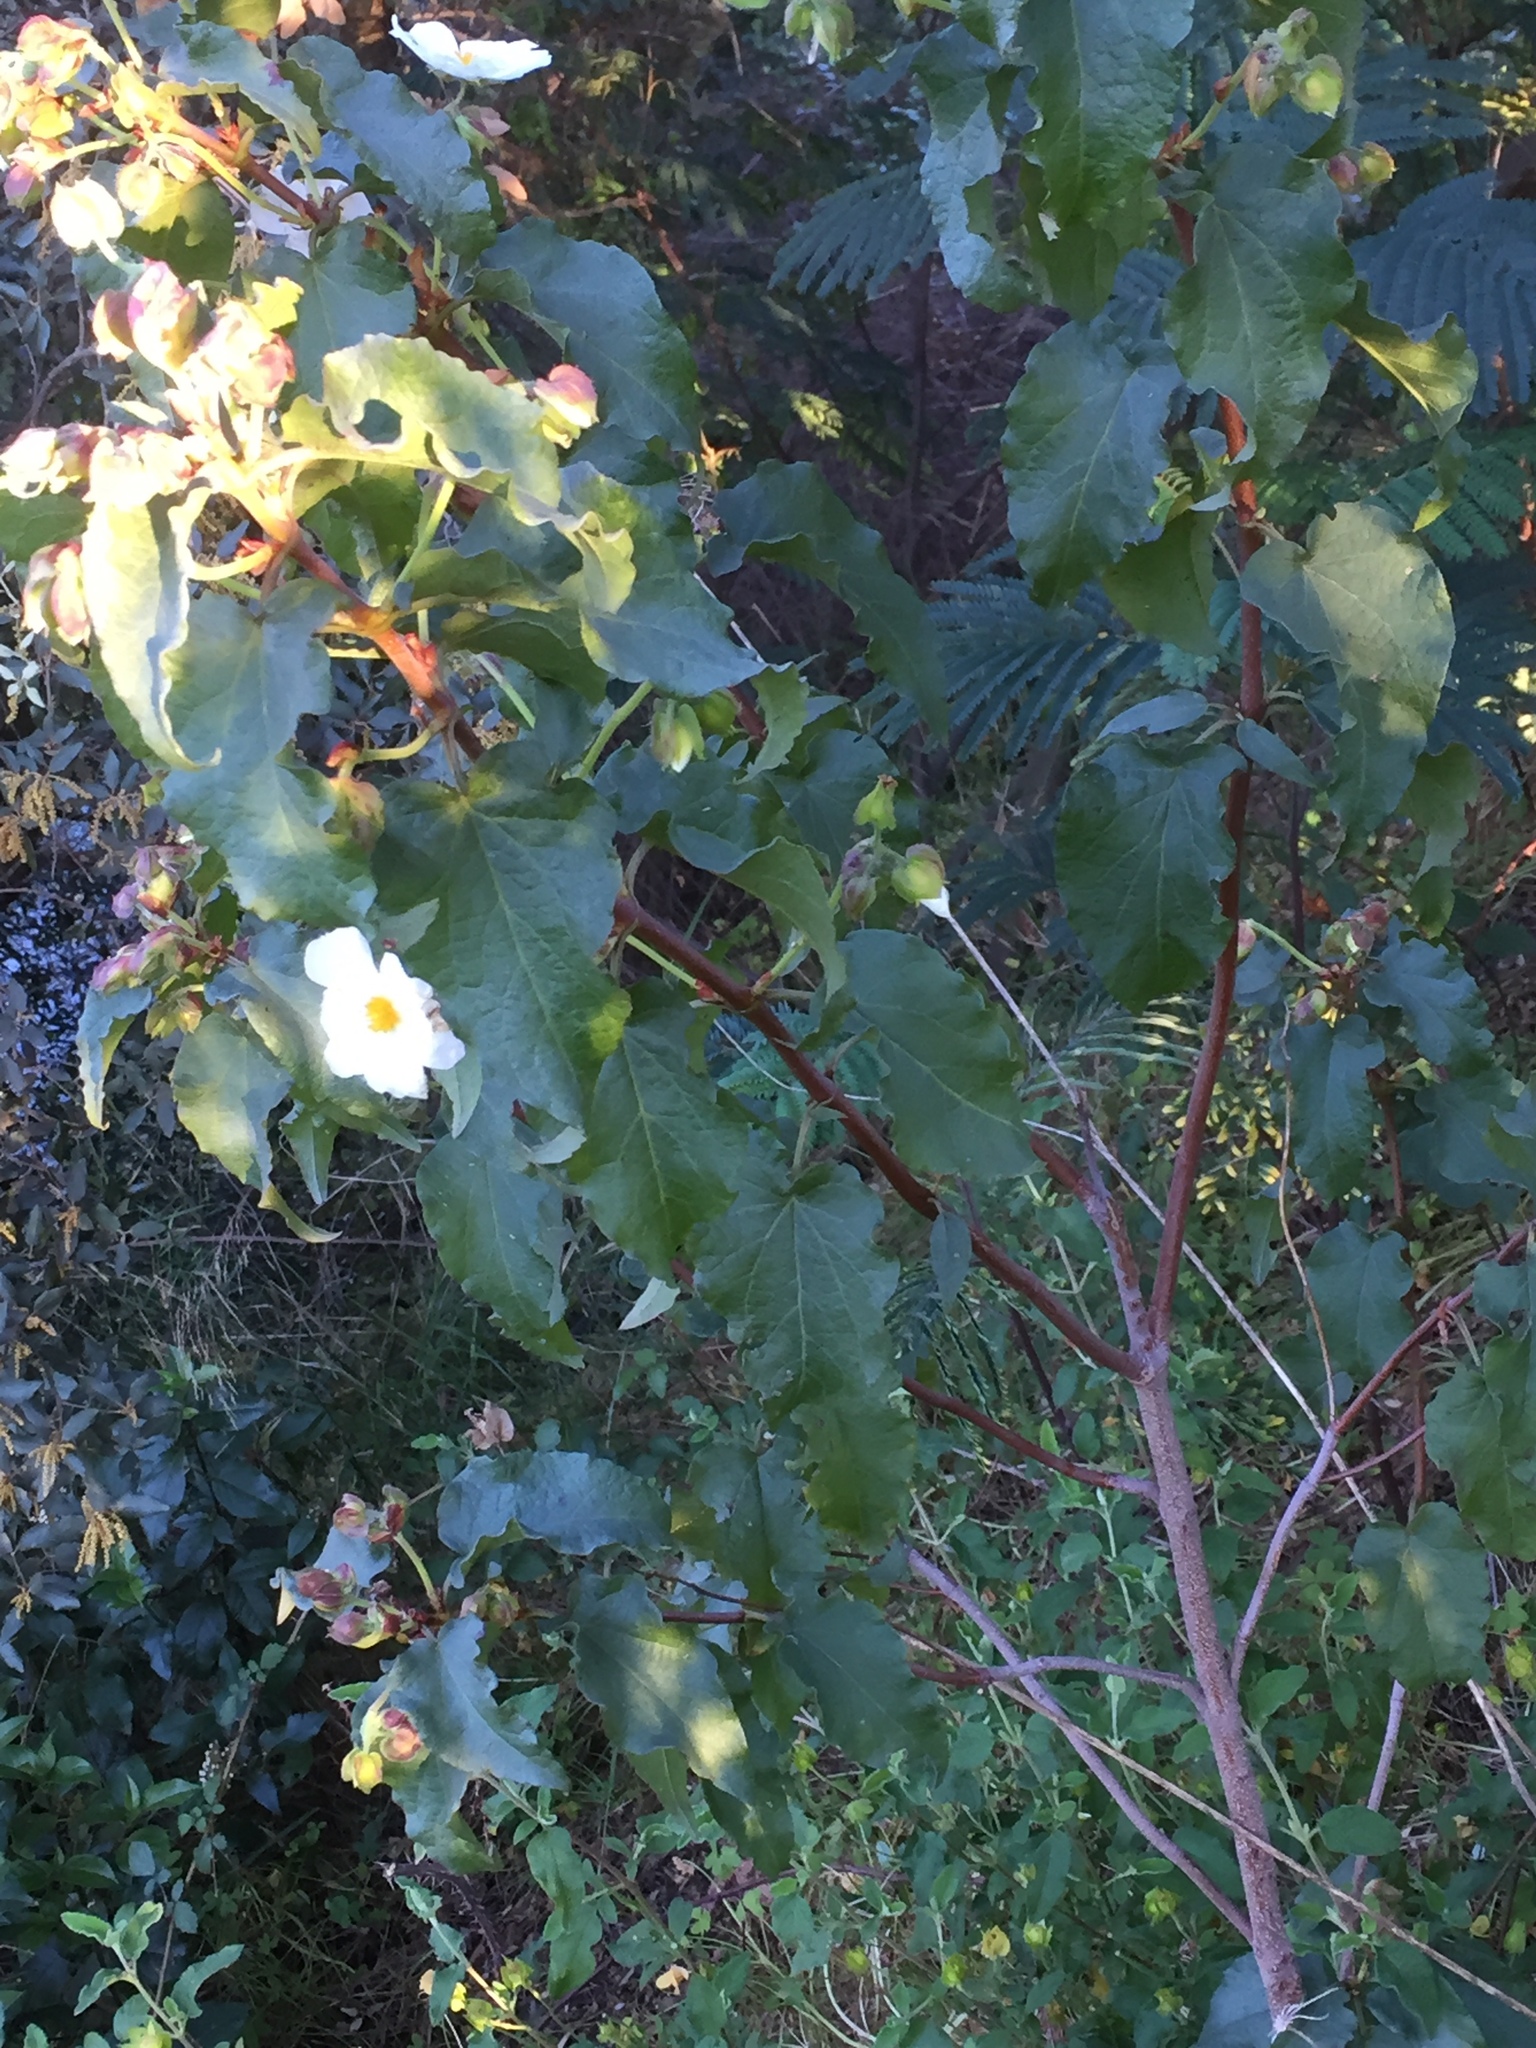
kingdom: Plantae
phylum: Tracheophyta
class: Magnoliopsida
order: Malvales
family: Cistaceae
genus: Cistus
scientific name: Cistus populifolius
